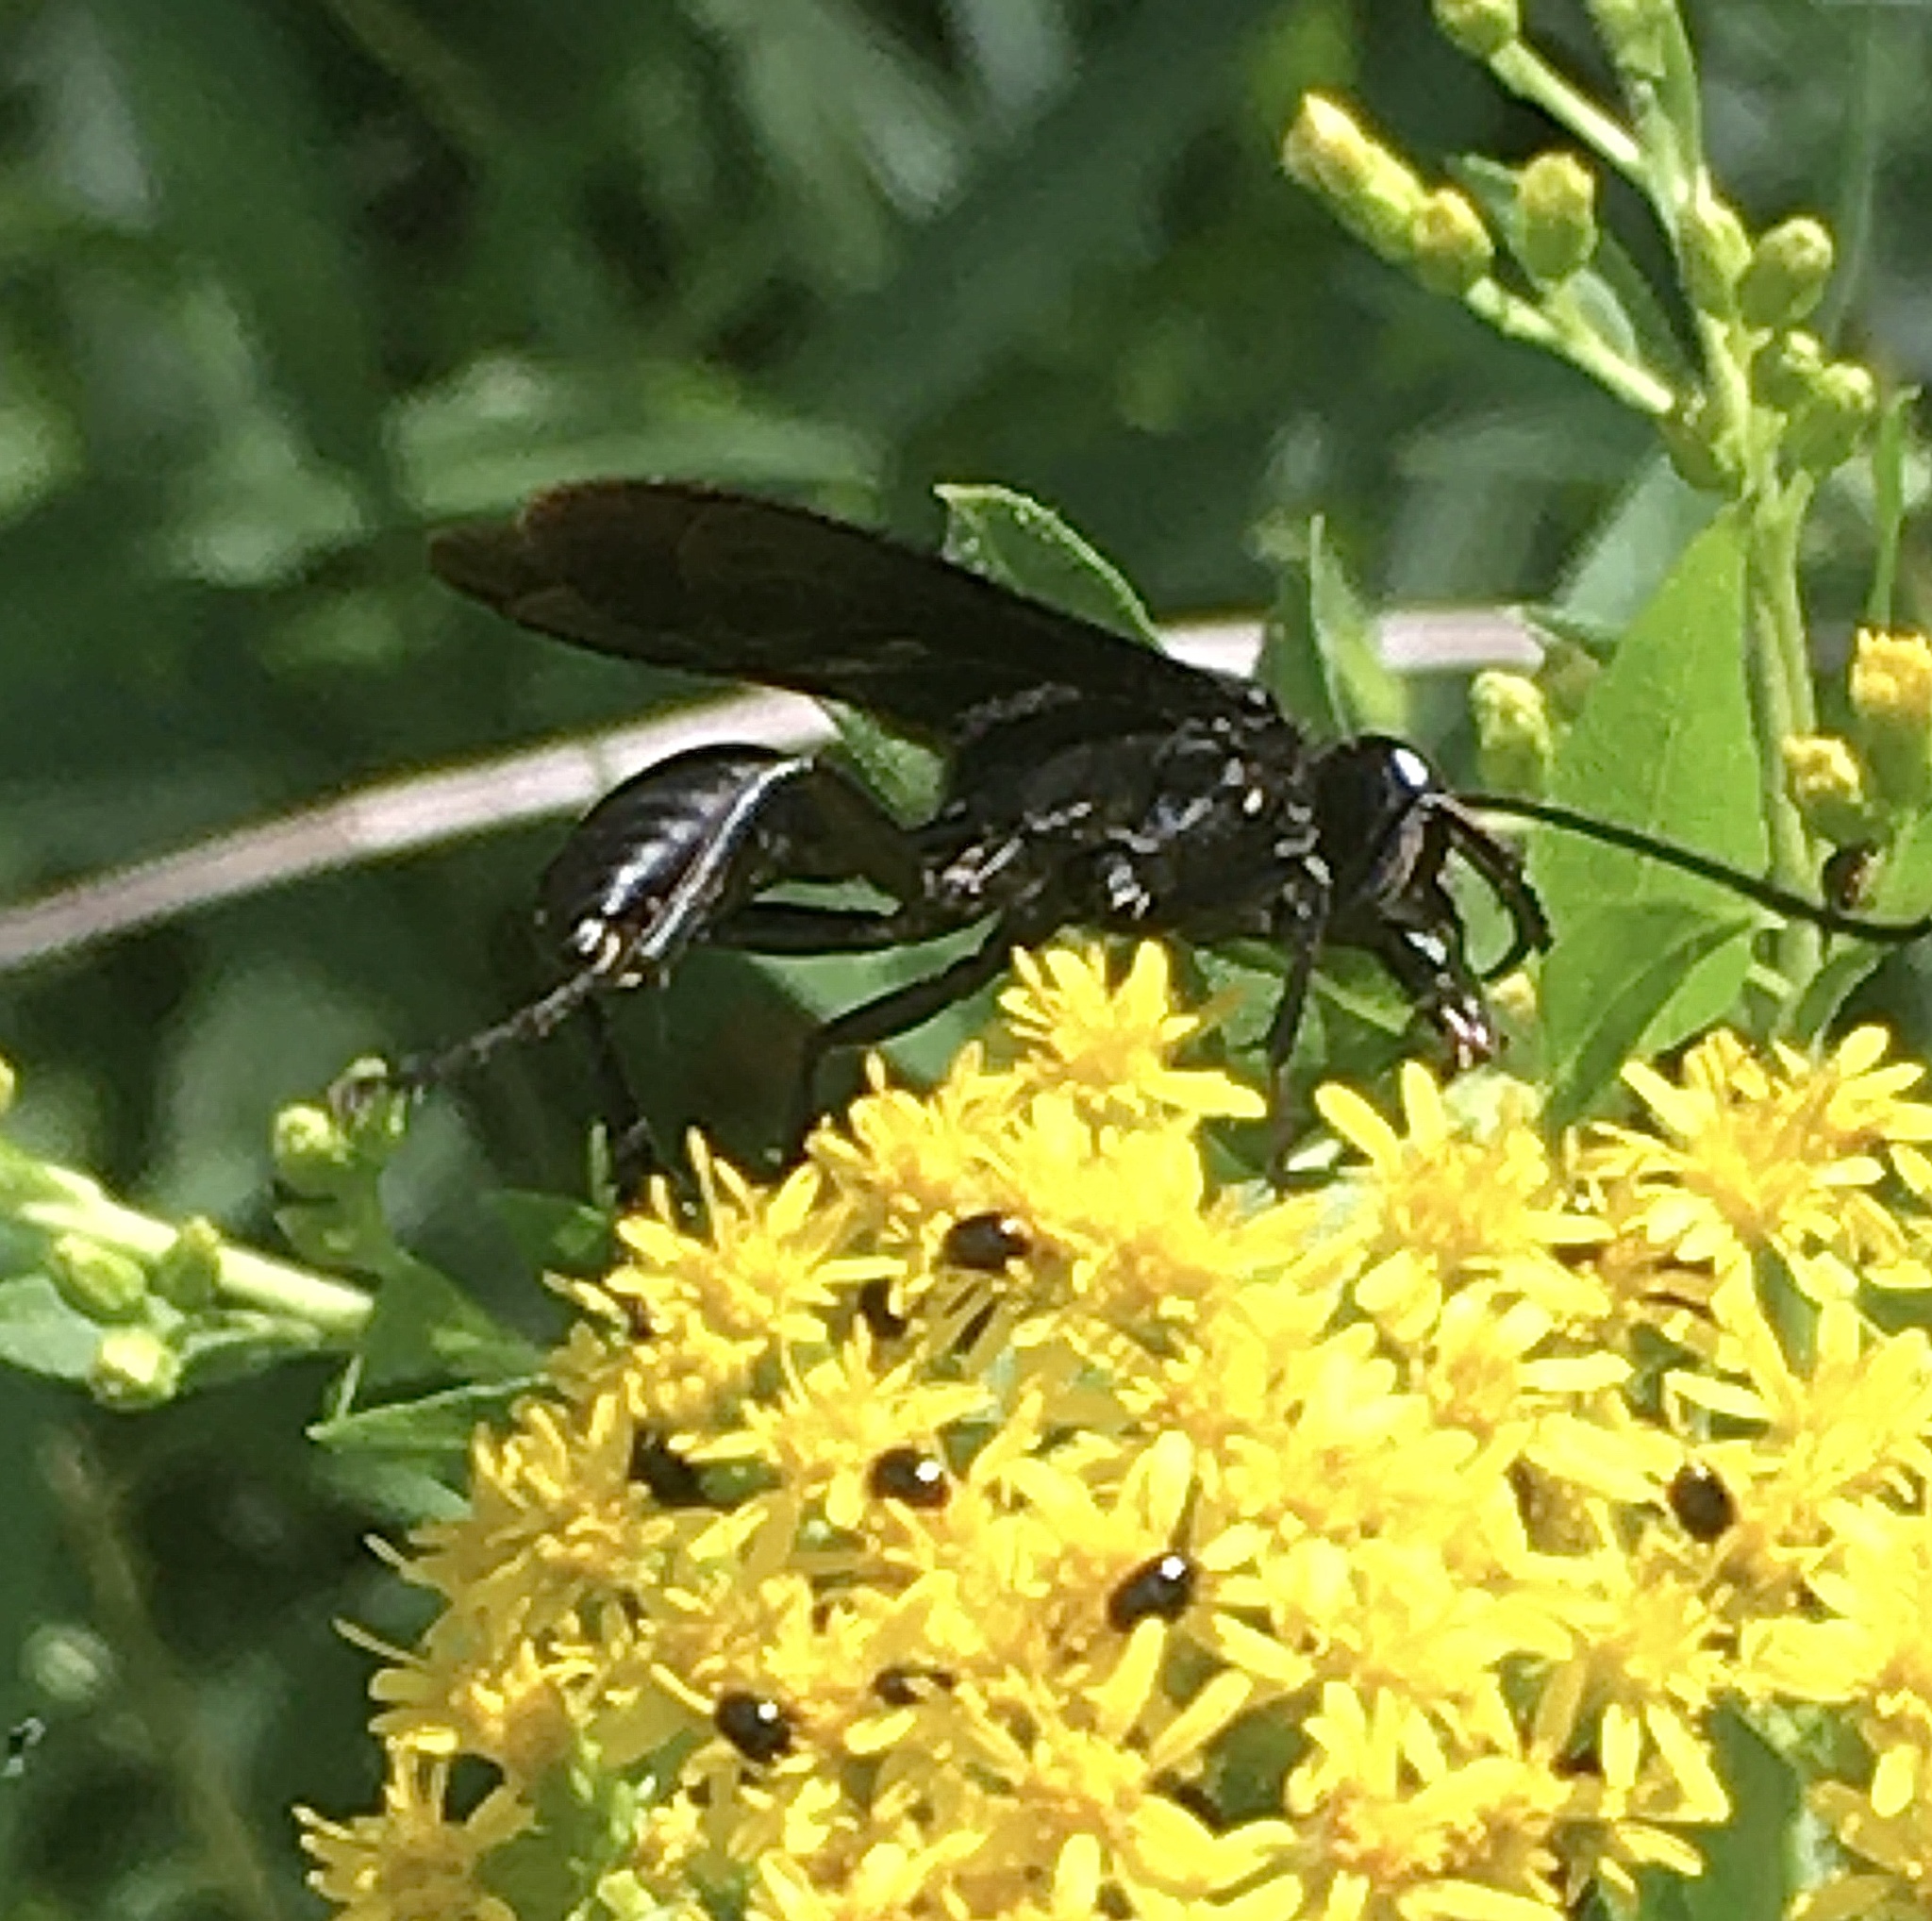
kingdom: Animalia
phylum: Arthropoda
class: Insecta
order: Hymenoptera
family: Sphecidae
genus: Sphex
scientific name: Sphex pensylvanicus
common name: Great black digger wasp
